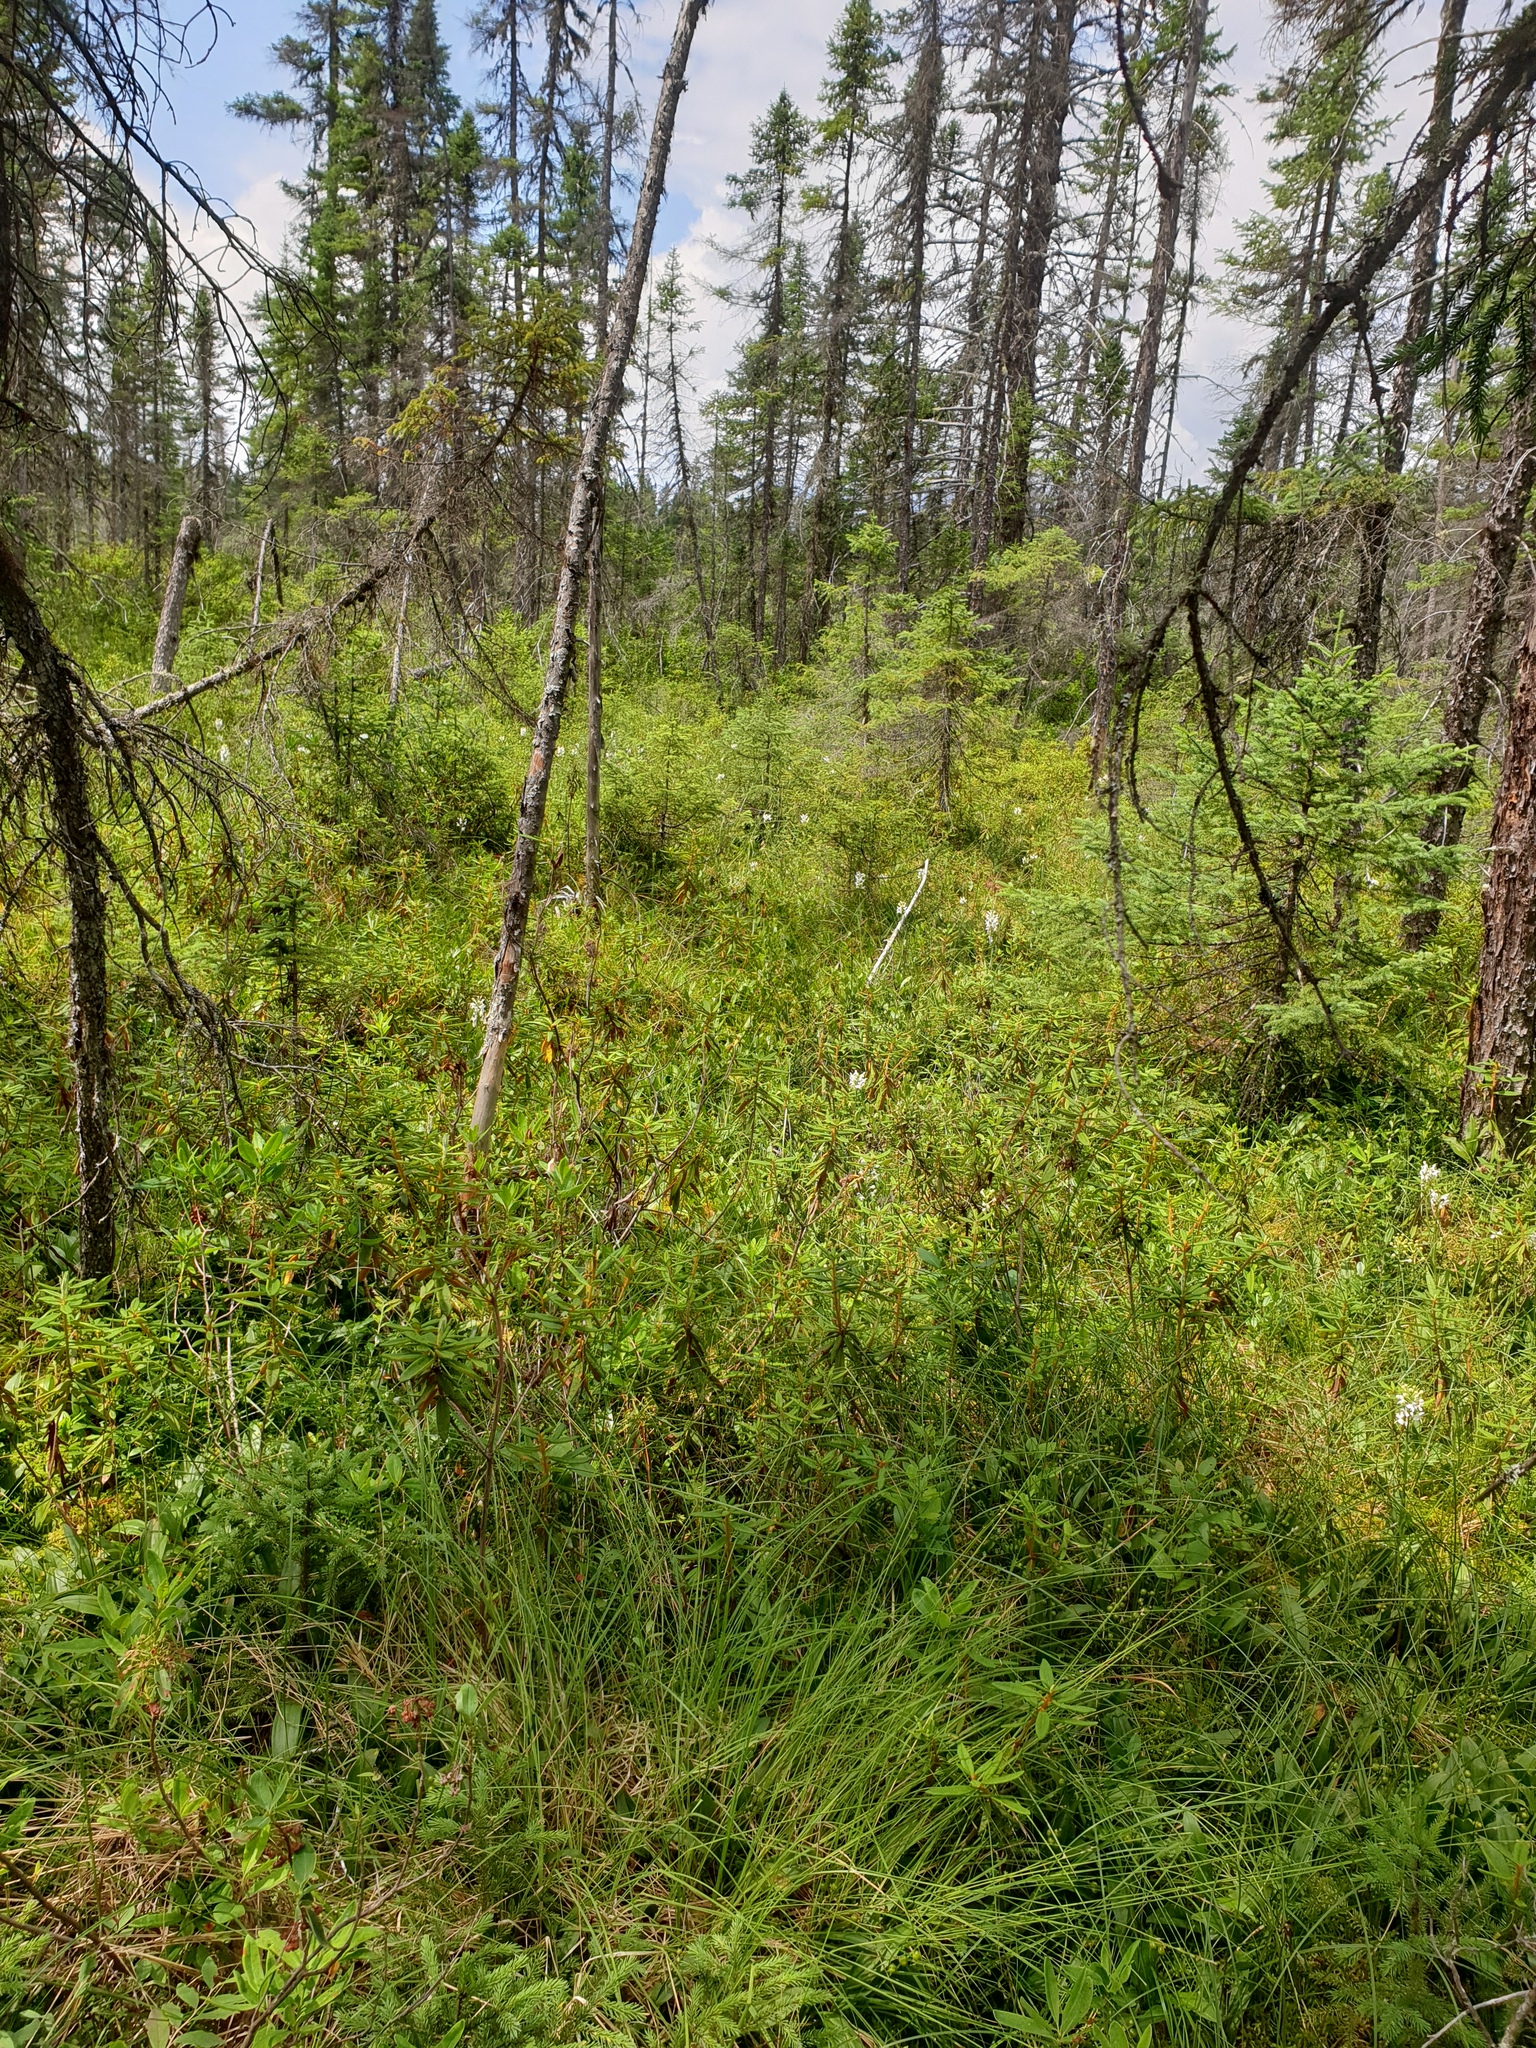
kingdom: Plantae
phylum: Tracheophyta
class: Pinopsida
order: Pinales
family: Pinaceae
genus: Picea
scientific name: Picea mariana
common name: Black spruce
